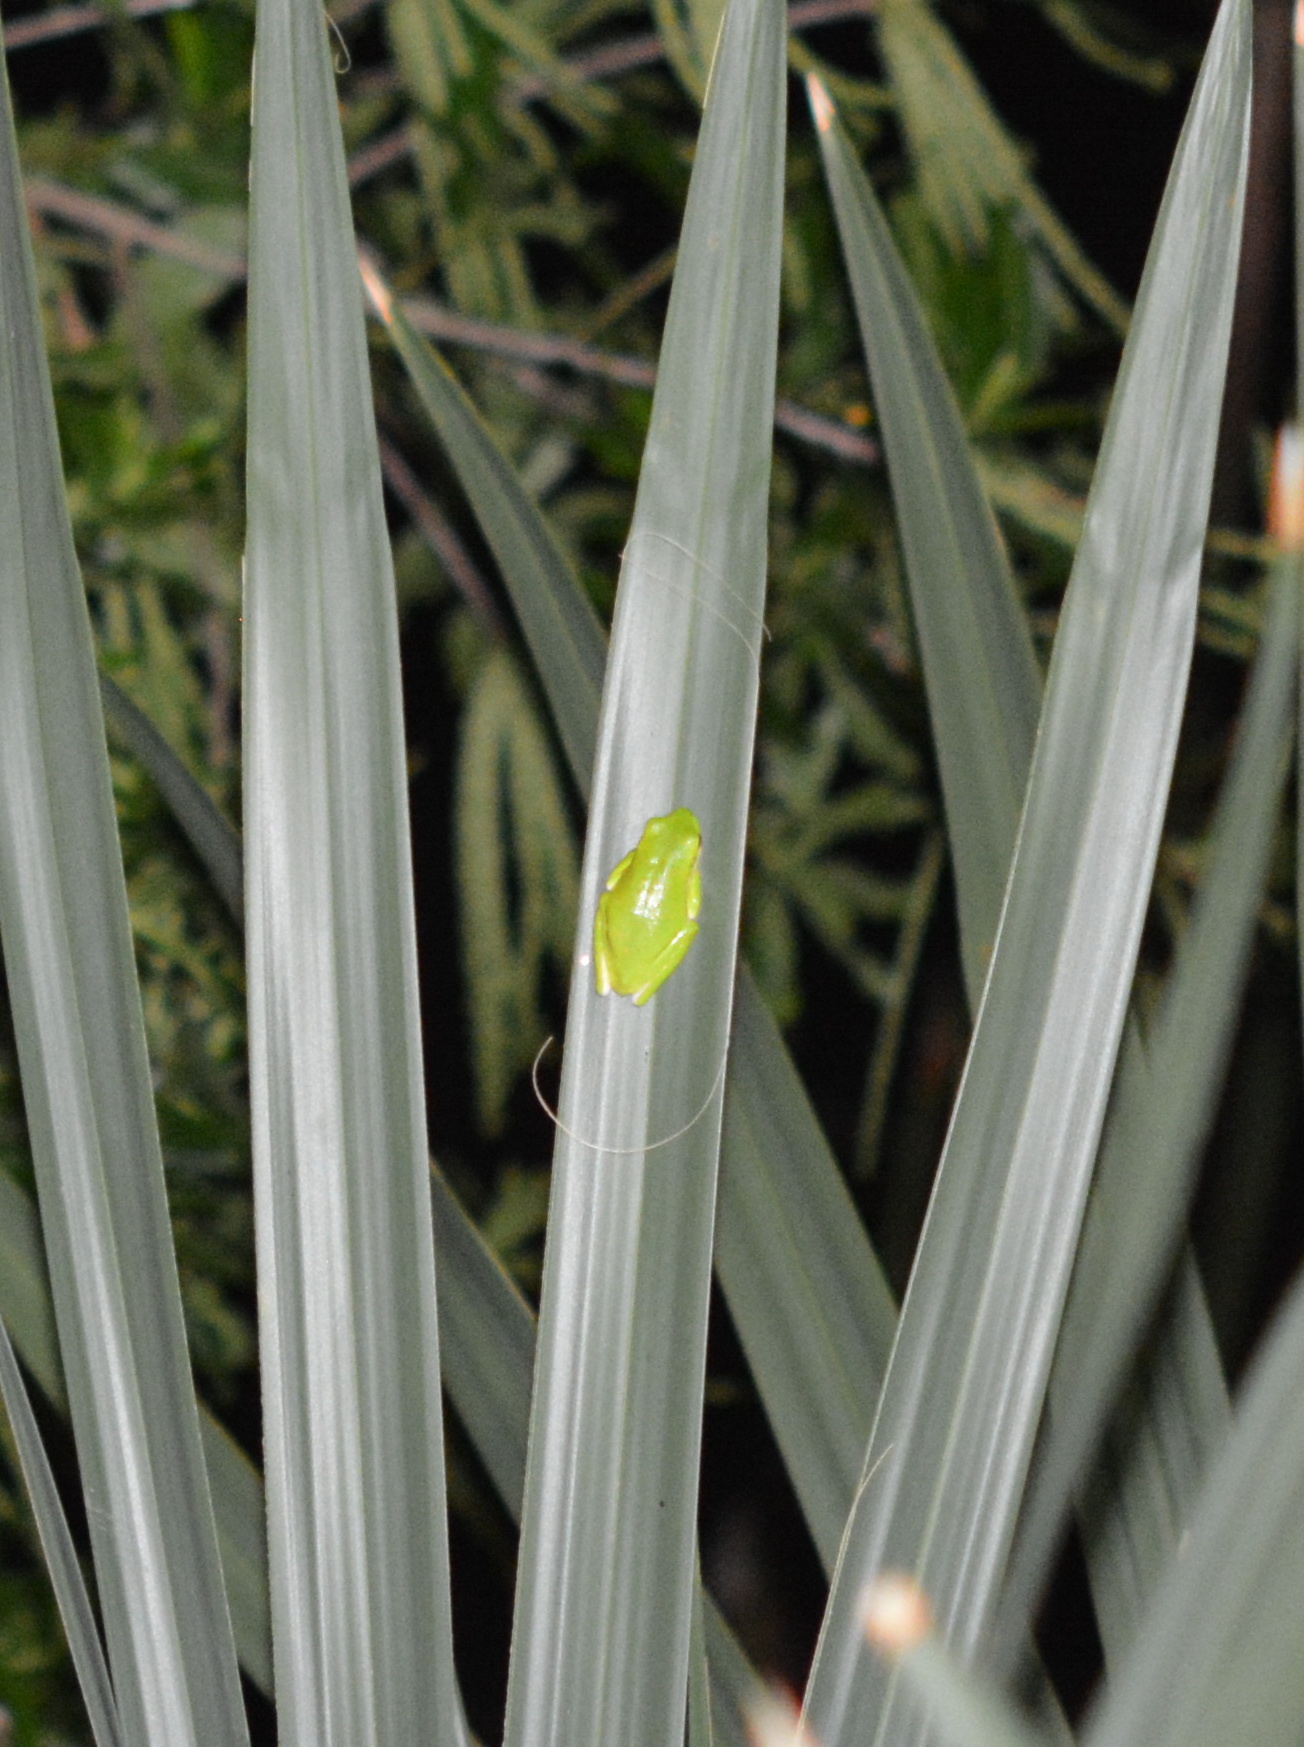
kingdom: Animalia
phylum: Chordata
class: Amphibia
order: Anura
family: Hylidae
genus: Dryophytes
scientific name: Dryophytes cinereus
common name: Green treefrog
